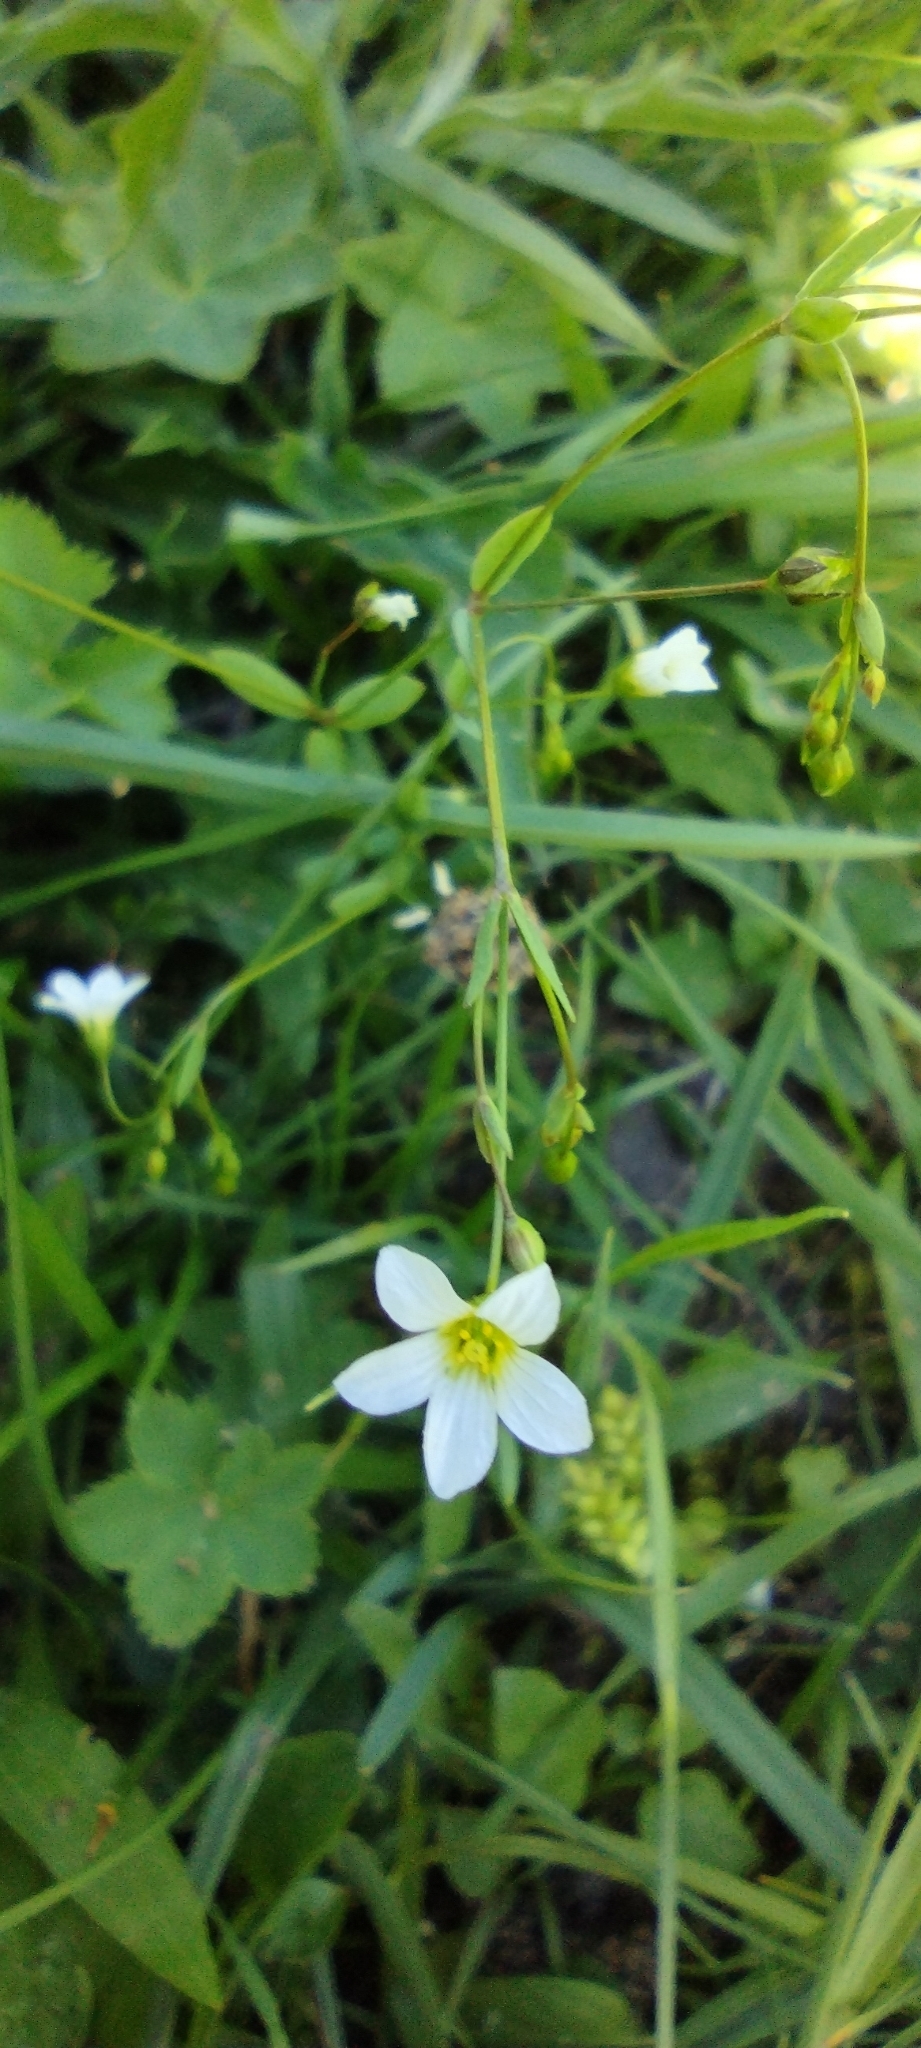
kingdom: Plantae
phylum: Tracheophyta
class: Magnoliopsida
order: Malpighiales
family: Linaceae
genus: Linum
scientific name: Linum catharticum
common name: Fairy flax
